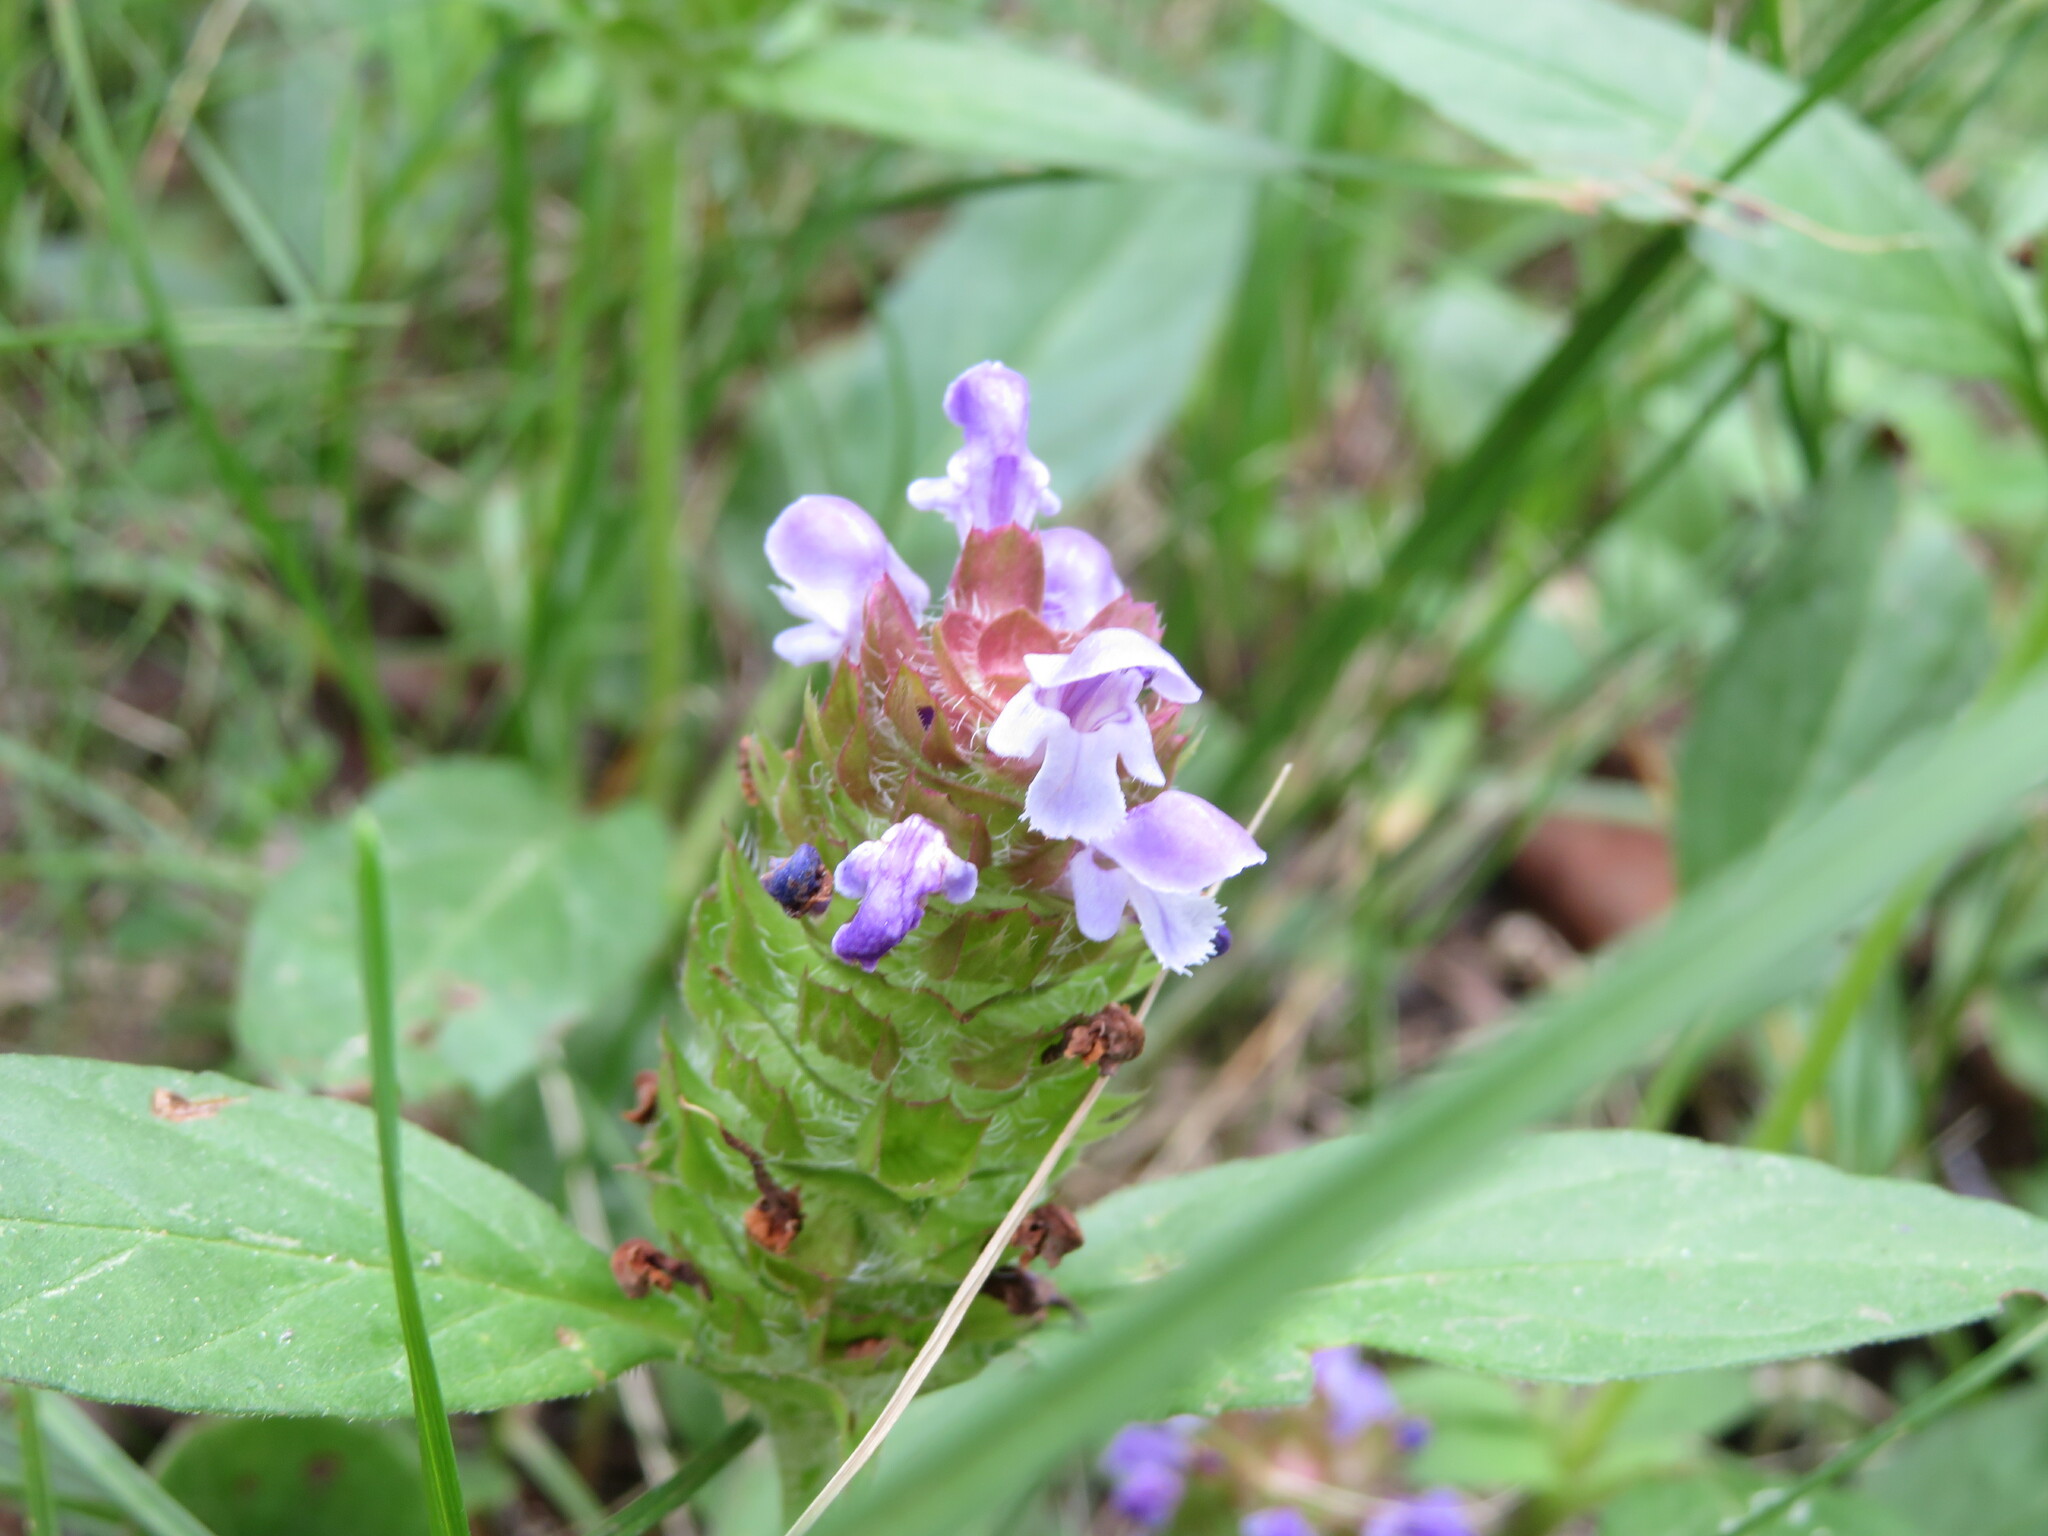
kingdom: Plantae
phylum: Tracheophyta
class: Magnoliopsida
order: Lamiales
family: Lamiaceae
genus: Prunella
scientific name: Prunella vulgaris
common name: Heal-all
